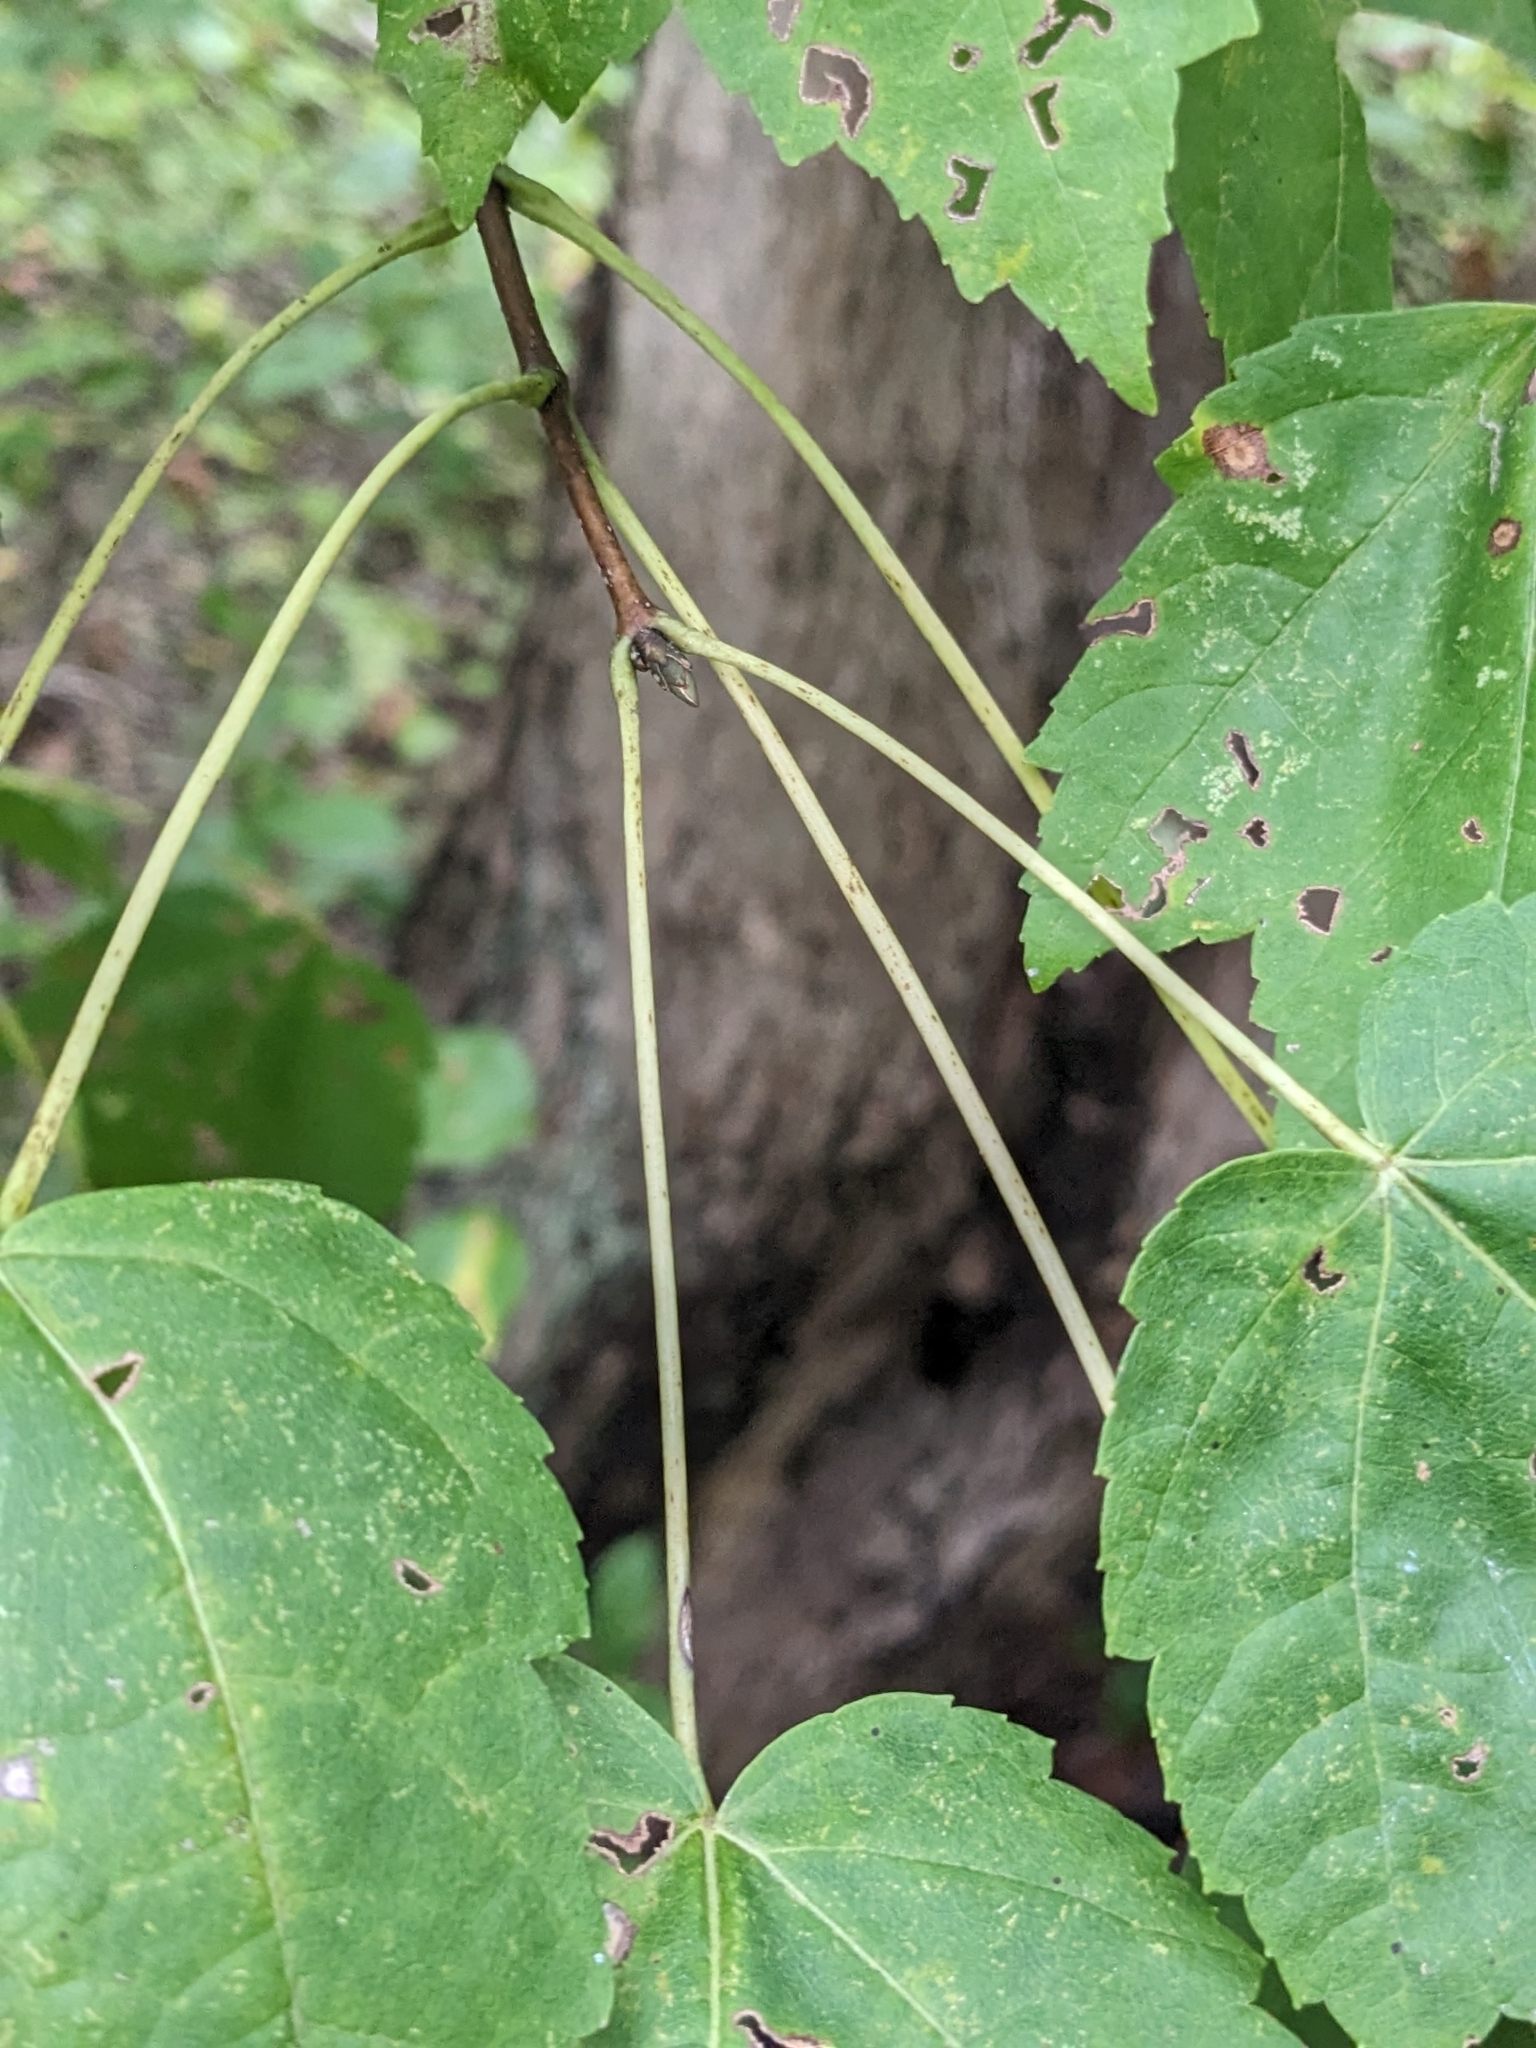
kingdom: Plantae
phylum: Tracheophyta
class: Magnoliopsida
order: Sapindales
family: Sapindaceae
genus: Acer
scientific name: Acer rubrum
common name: Red maple
